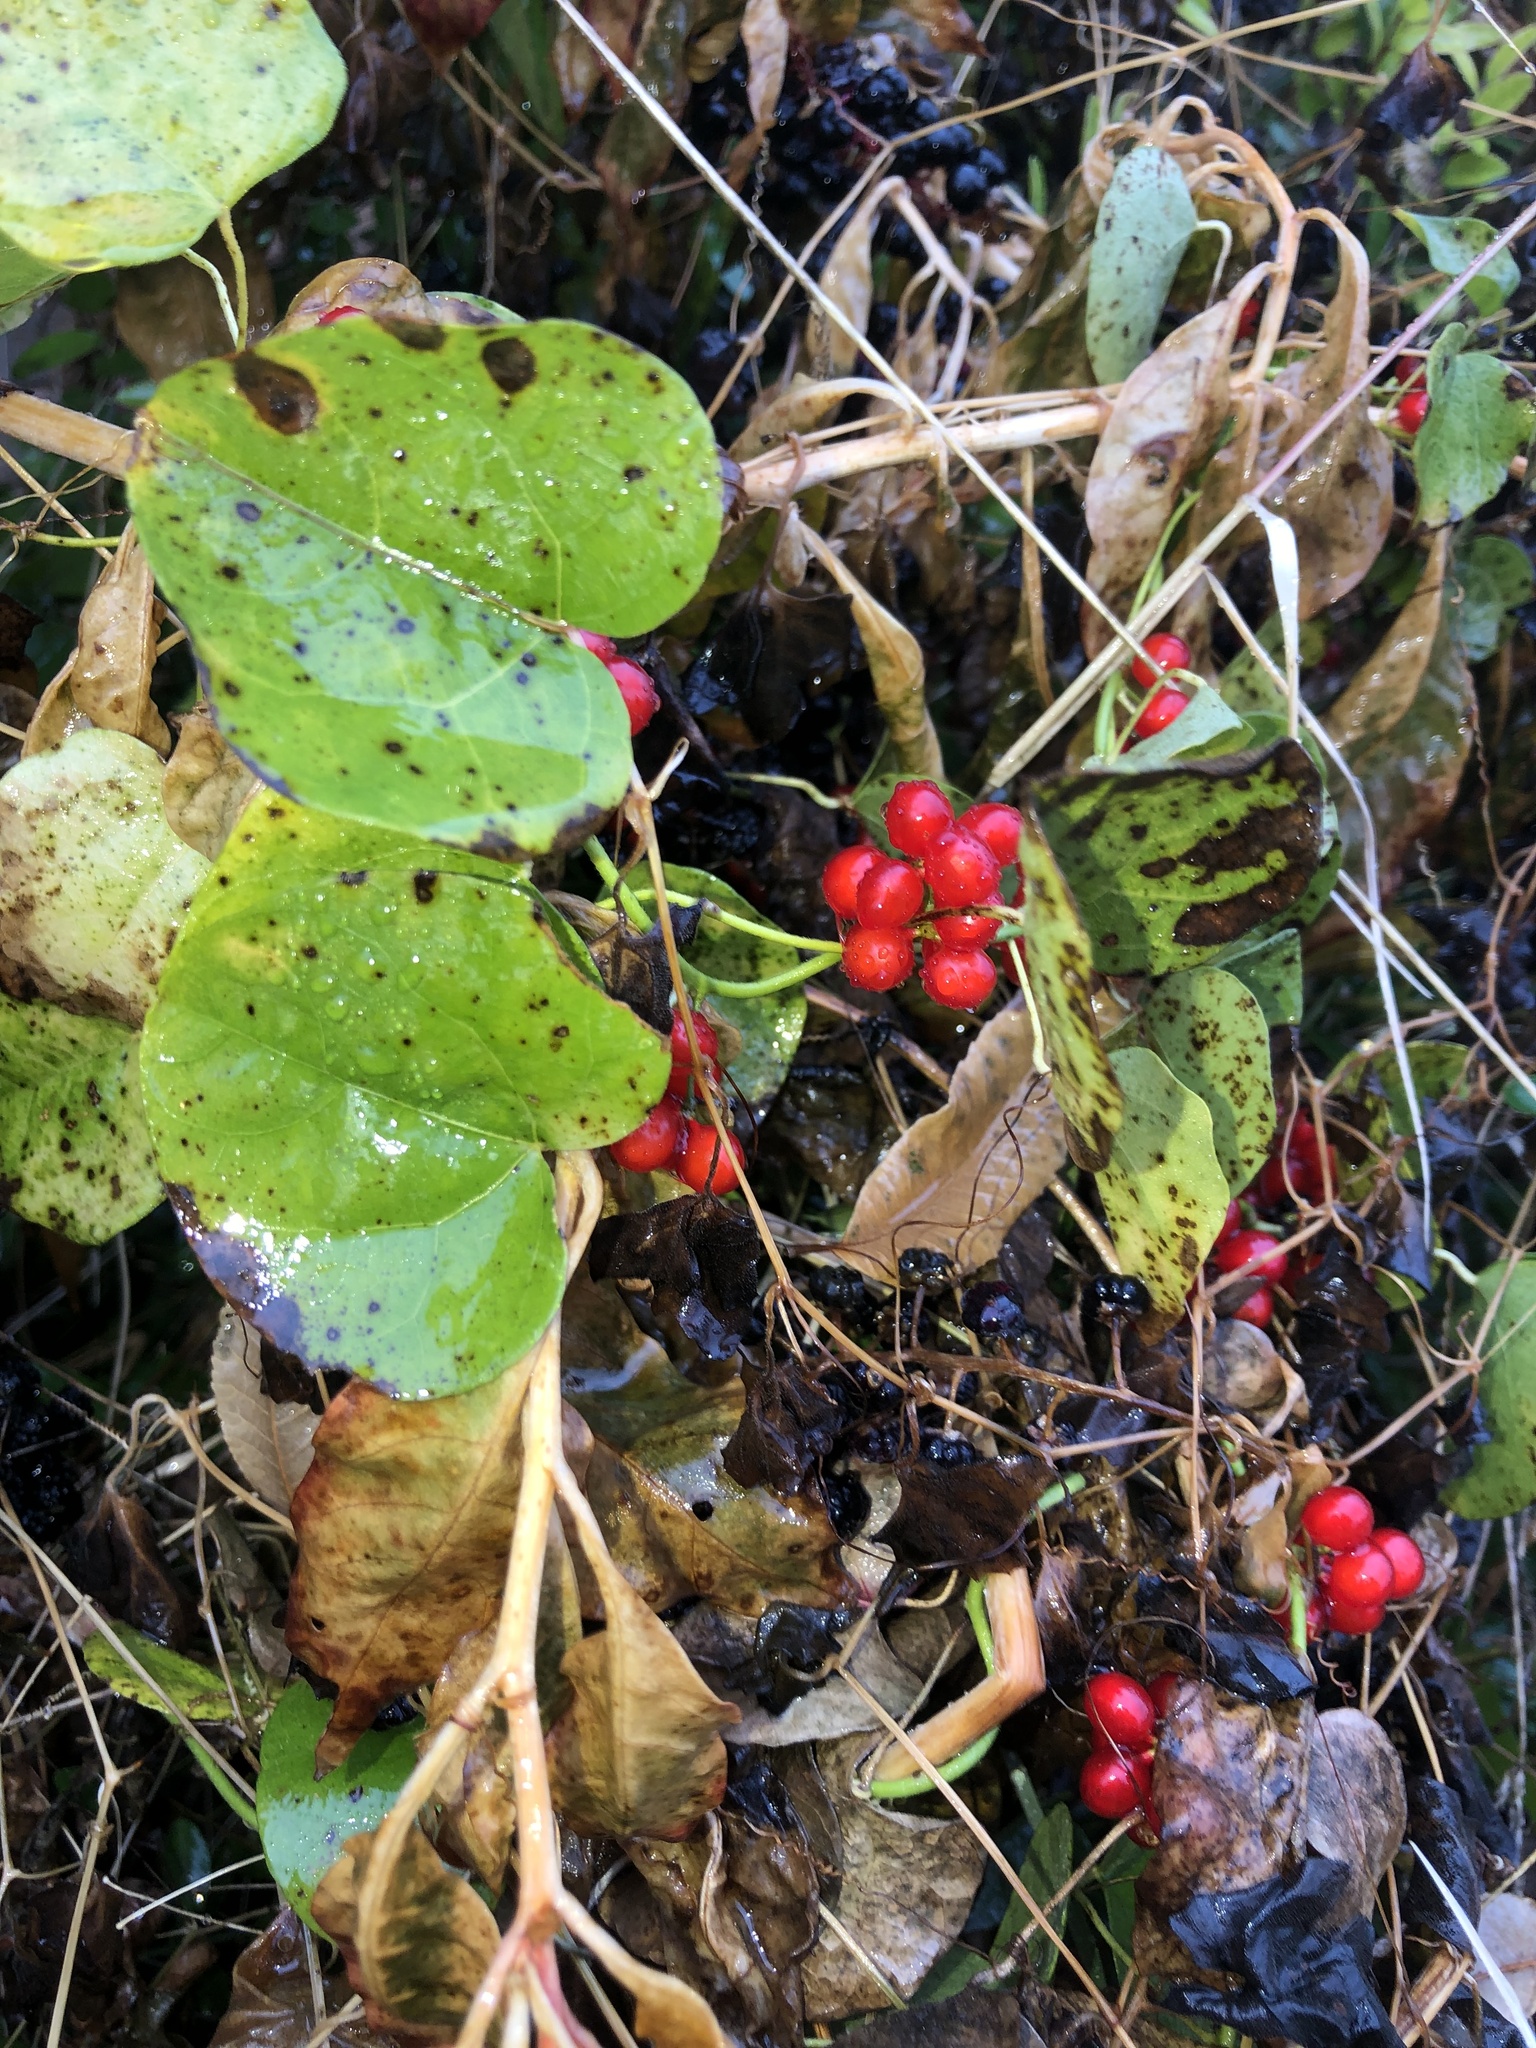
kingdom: Plantae
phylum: Tracheophyta
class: Magnoliopsida
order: Ranunculales
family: Menispermaceae
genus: Cocculus
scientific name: Cocculus carolinus
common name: Carolina moonseed
